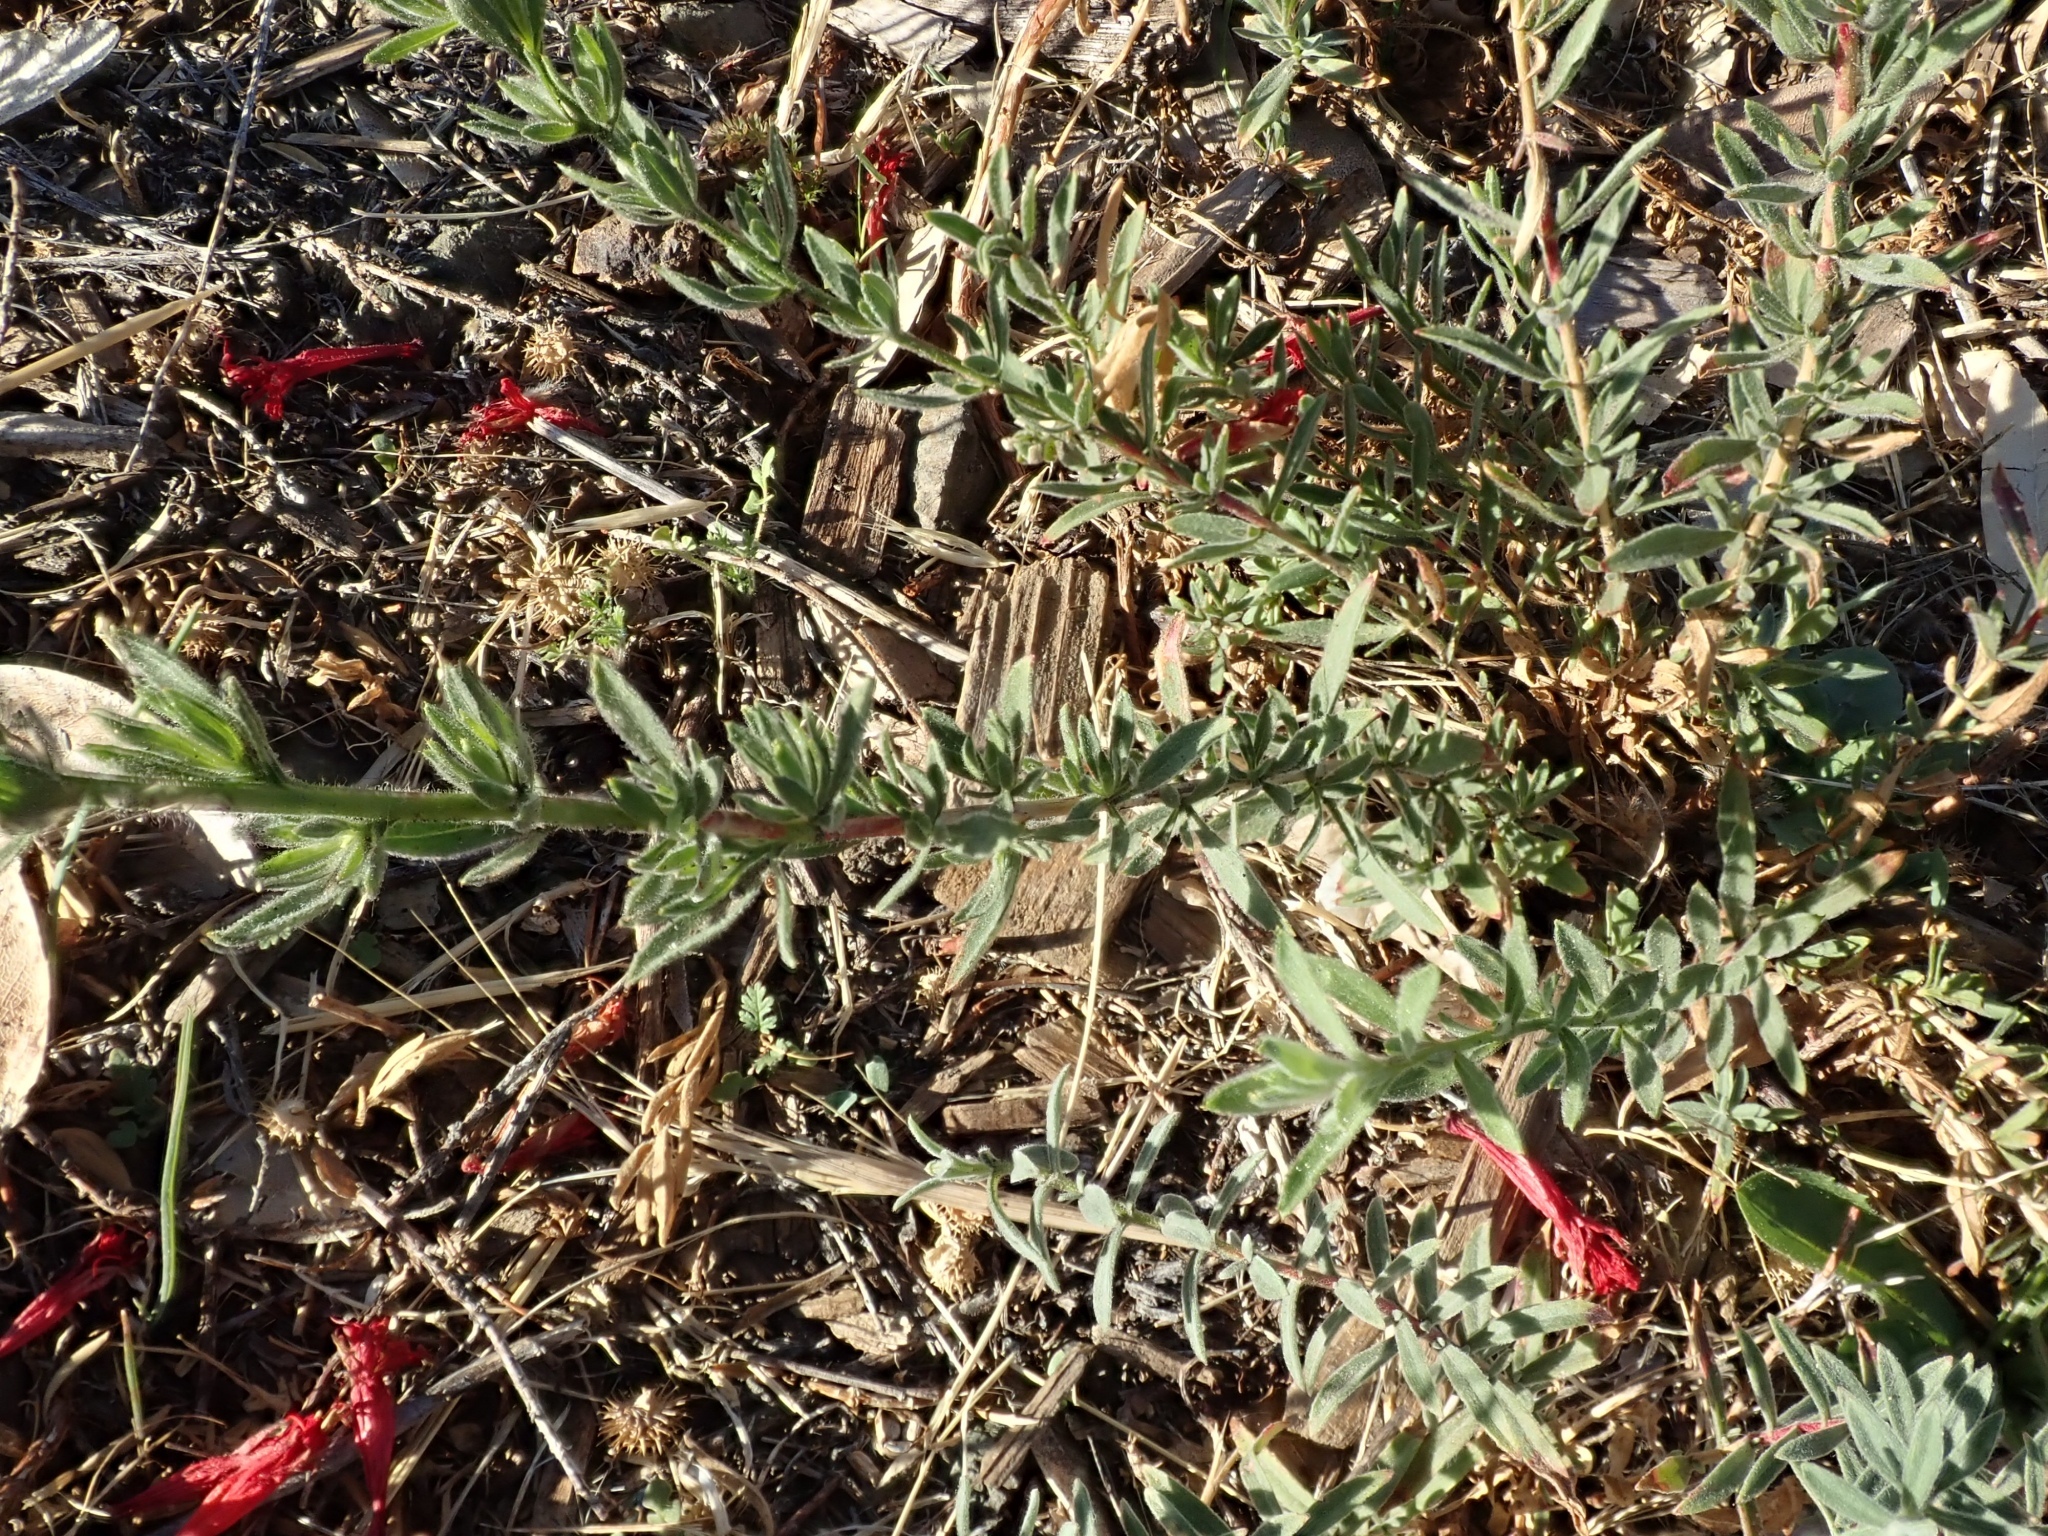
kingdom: Plantae
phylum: Tracheophyta
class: Magnoliopsida
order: Myrtales
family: Onagraceae
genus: Epilobium
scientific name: Epilobium canum
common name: California-fuchsia
